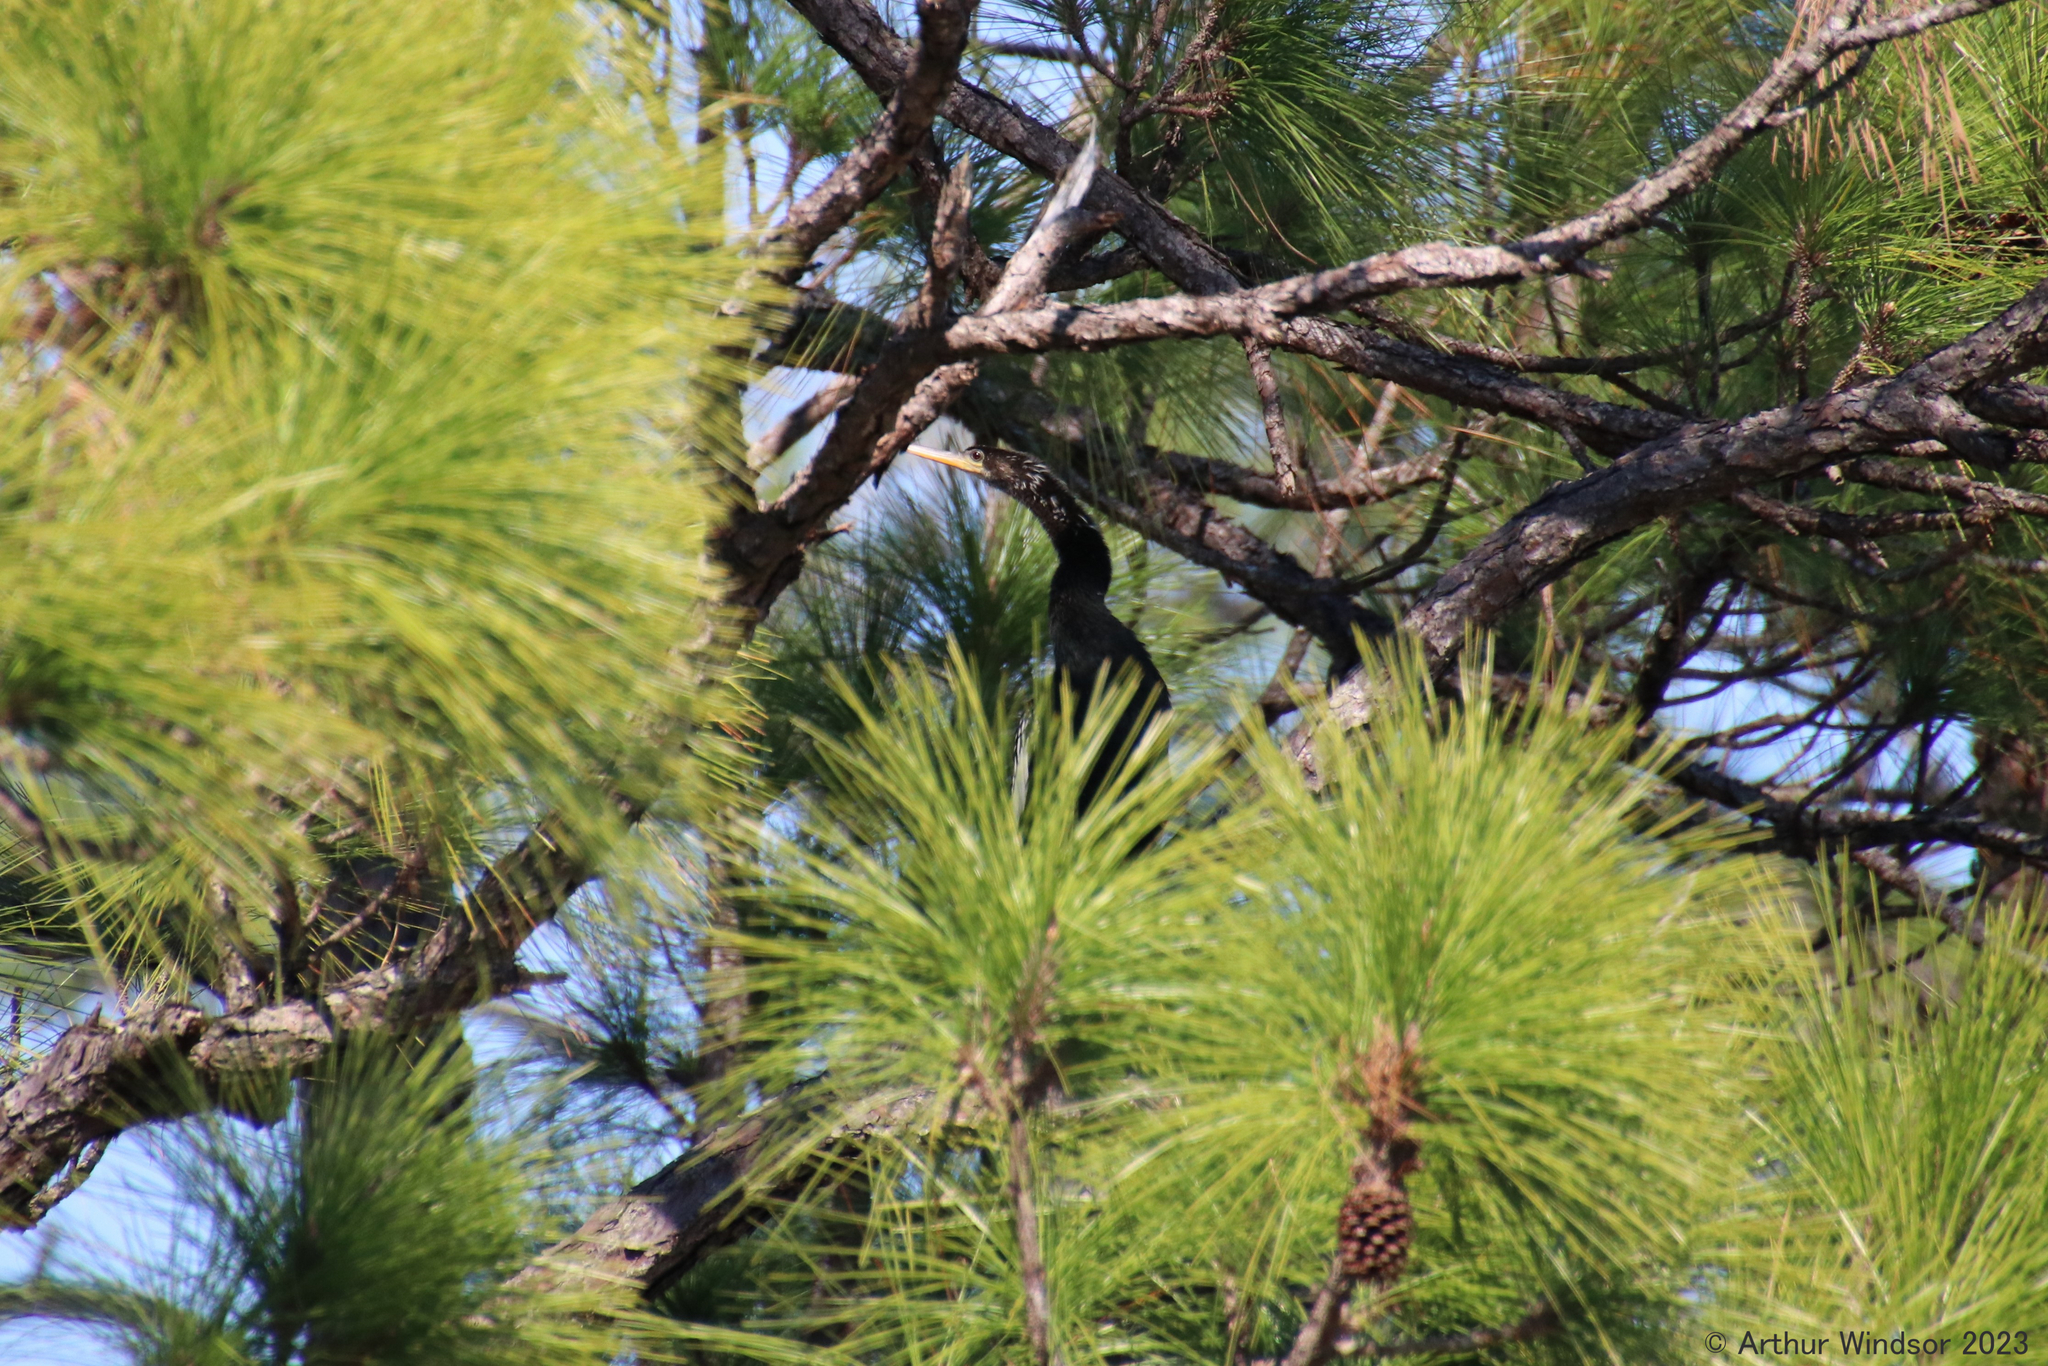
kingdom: Animalia
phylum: Chordata
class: Aves
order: Suliformes
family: Anhingidae
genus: Anhinga
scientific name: Anhinga anhinga
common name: Anhinga
